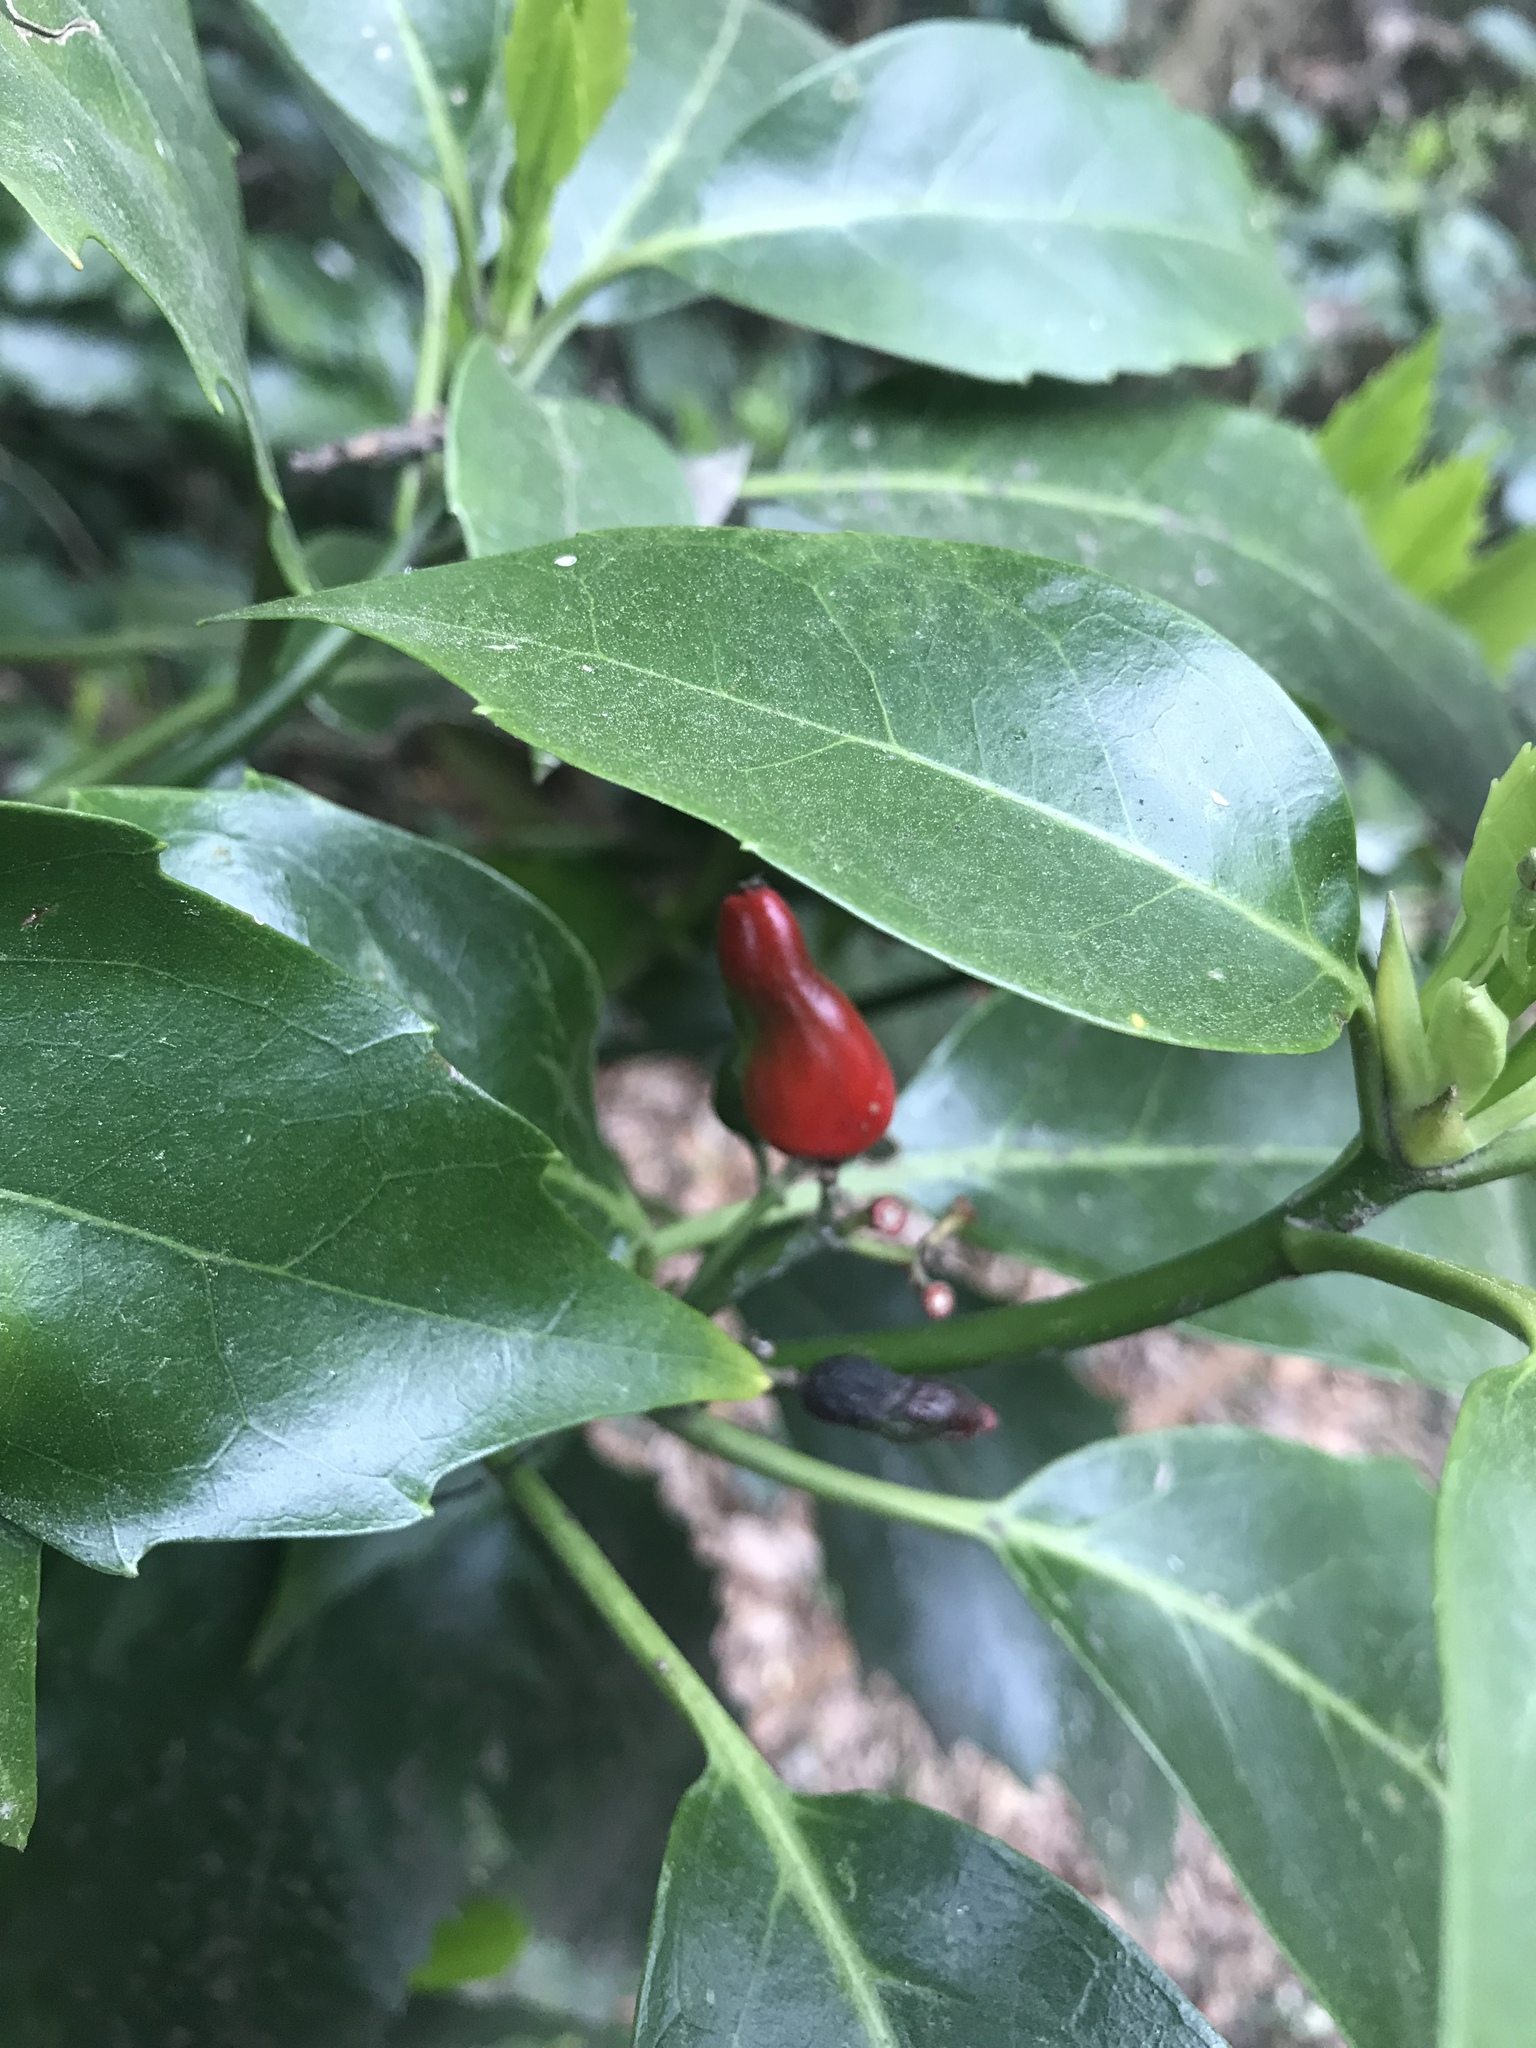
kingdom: Plantae
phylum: Tracheophyta
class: Magnoliopsida
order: Garryales
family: Garryaceae
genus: Aucuba
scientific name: Aucuba japonica
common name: Spotted-laurel
